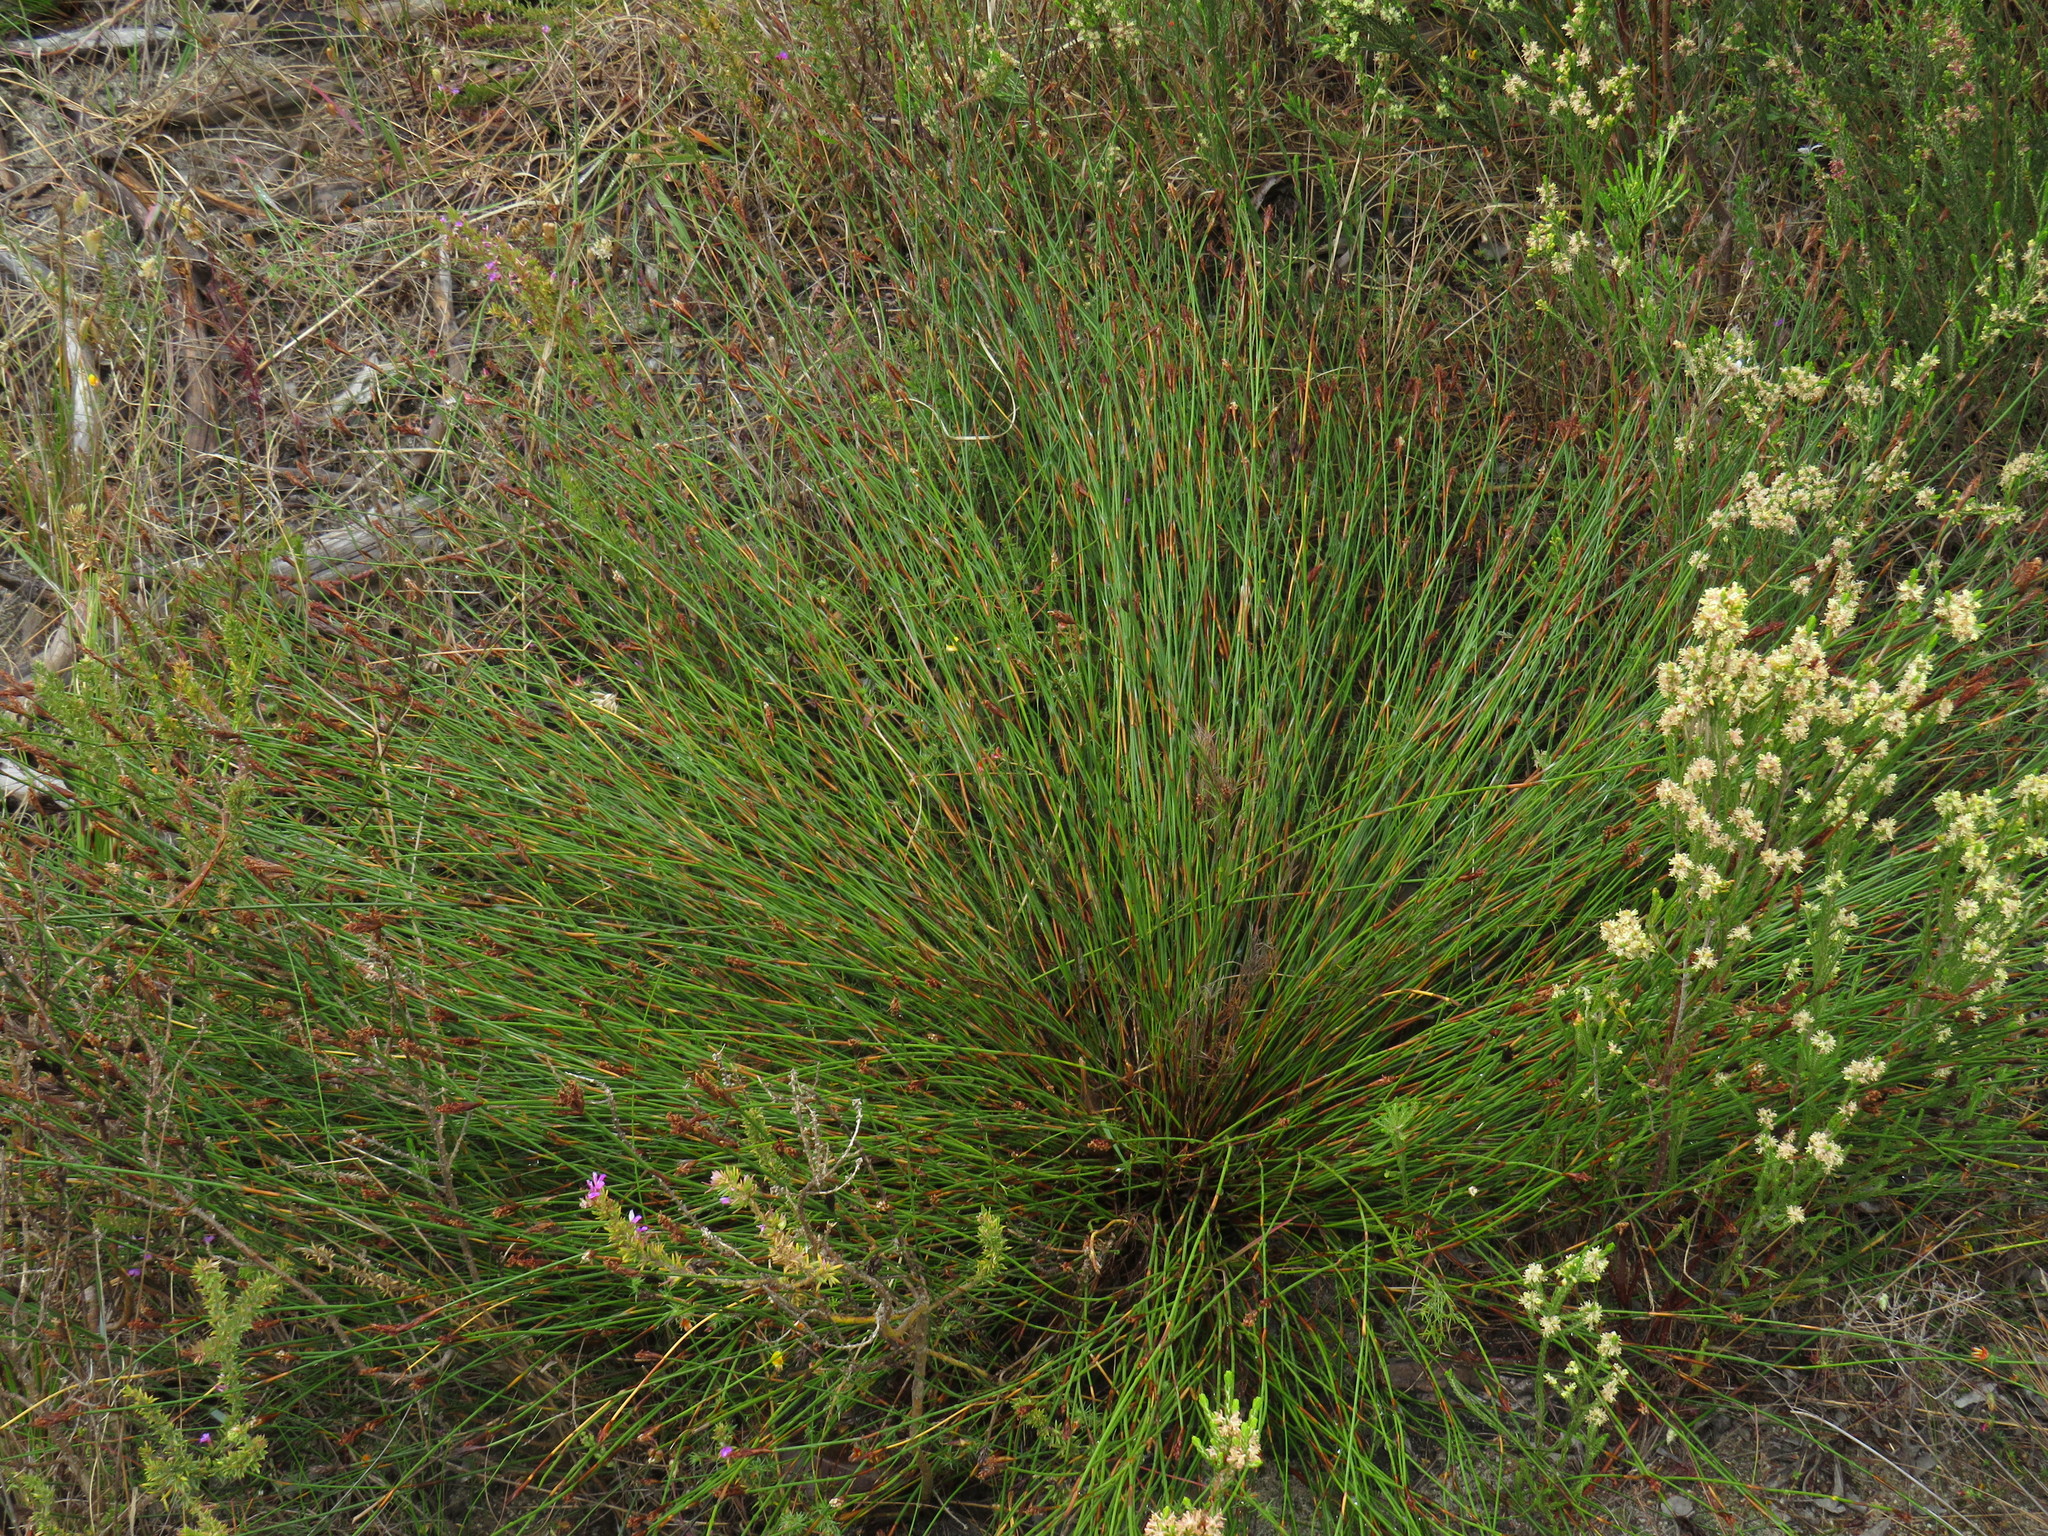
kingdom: Plantae
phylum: Tracheophyta
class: Liliopsida
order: Poales
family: Restionaceae
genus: Restio
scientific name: Restio capensis
